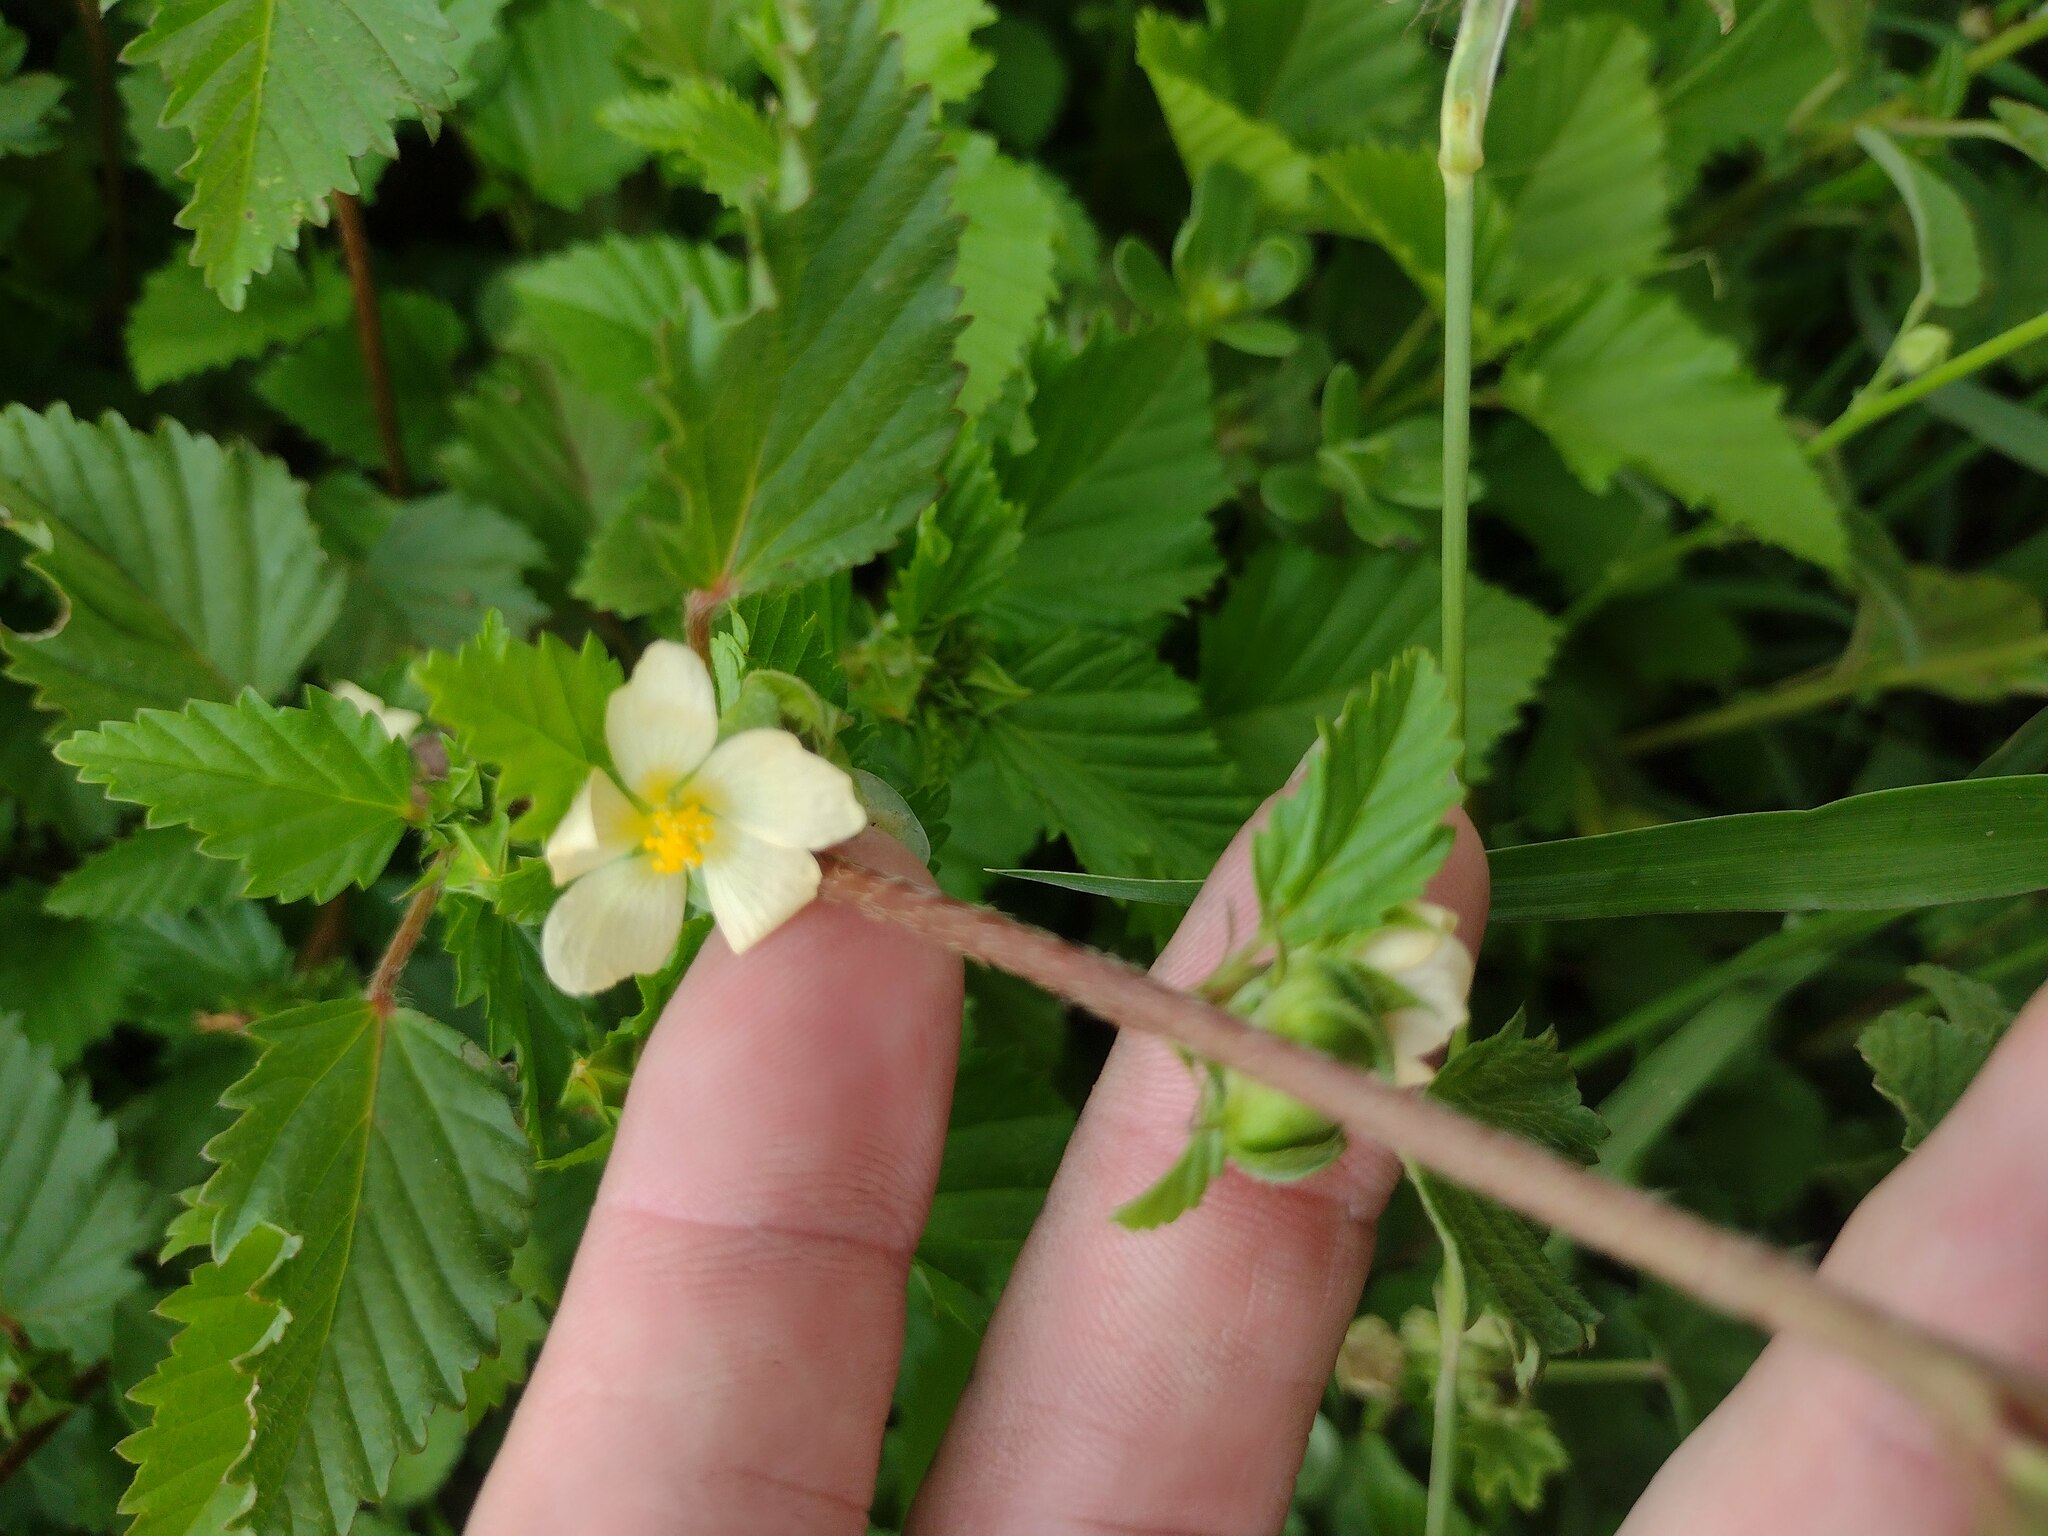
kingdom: Plantae
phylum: Tracheophyta
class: Magnoliopsida
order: Malvales
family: Malvaceae
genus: Malvastrum
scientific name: Malvastrum coromandelianum
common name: Threelobe false mallow
